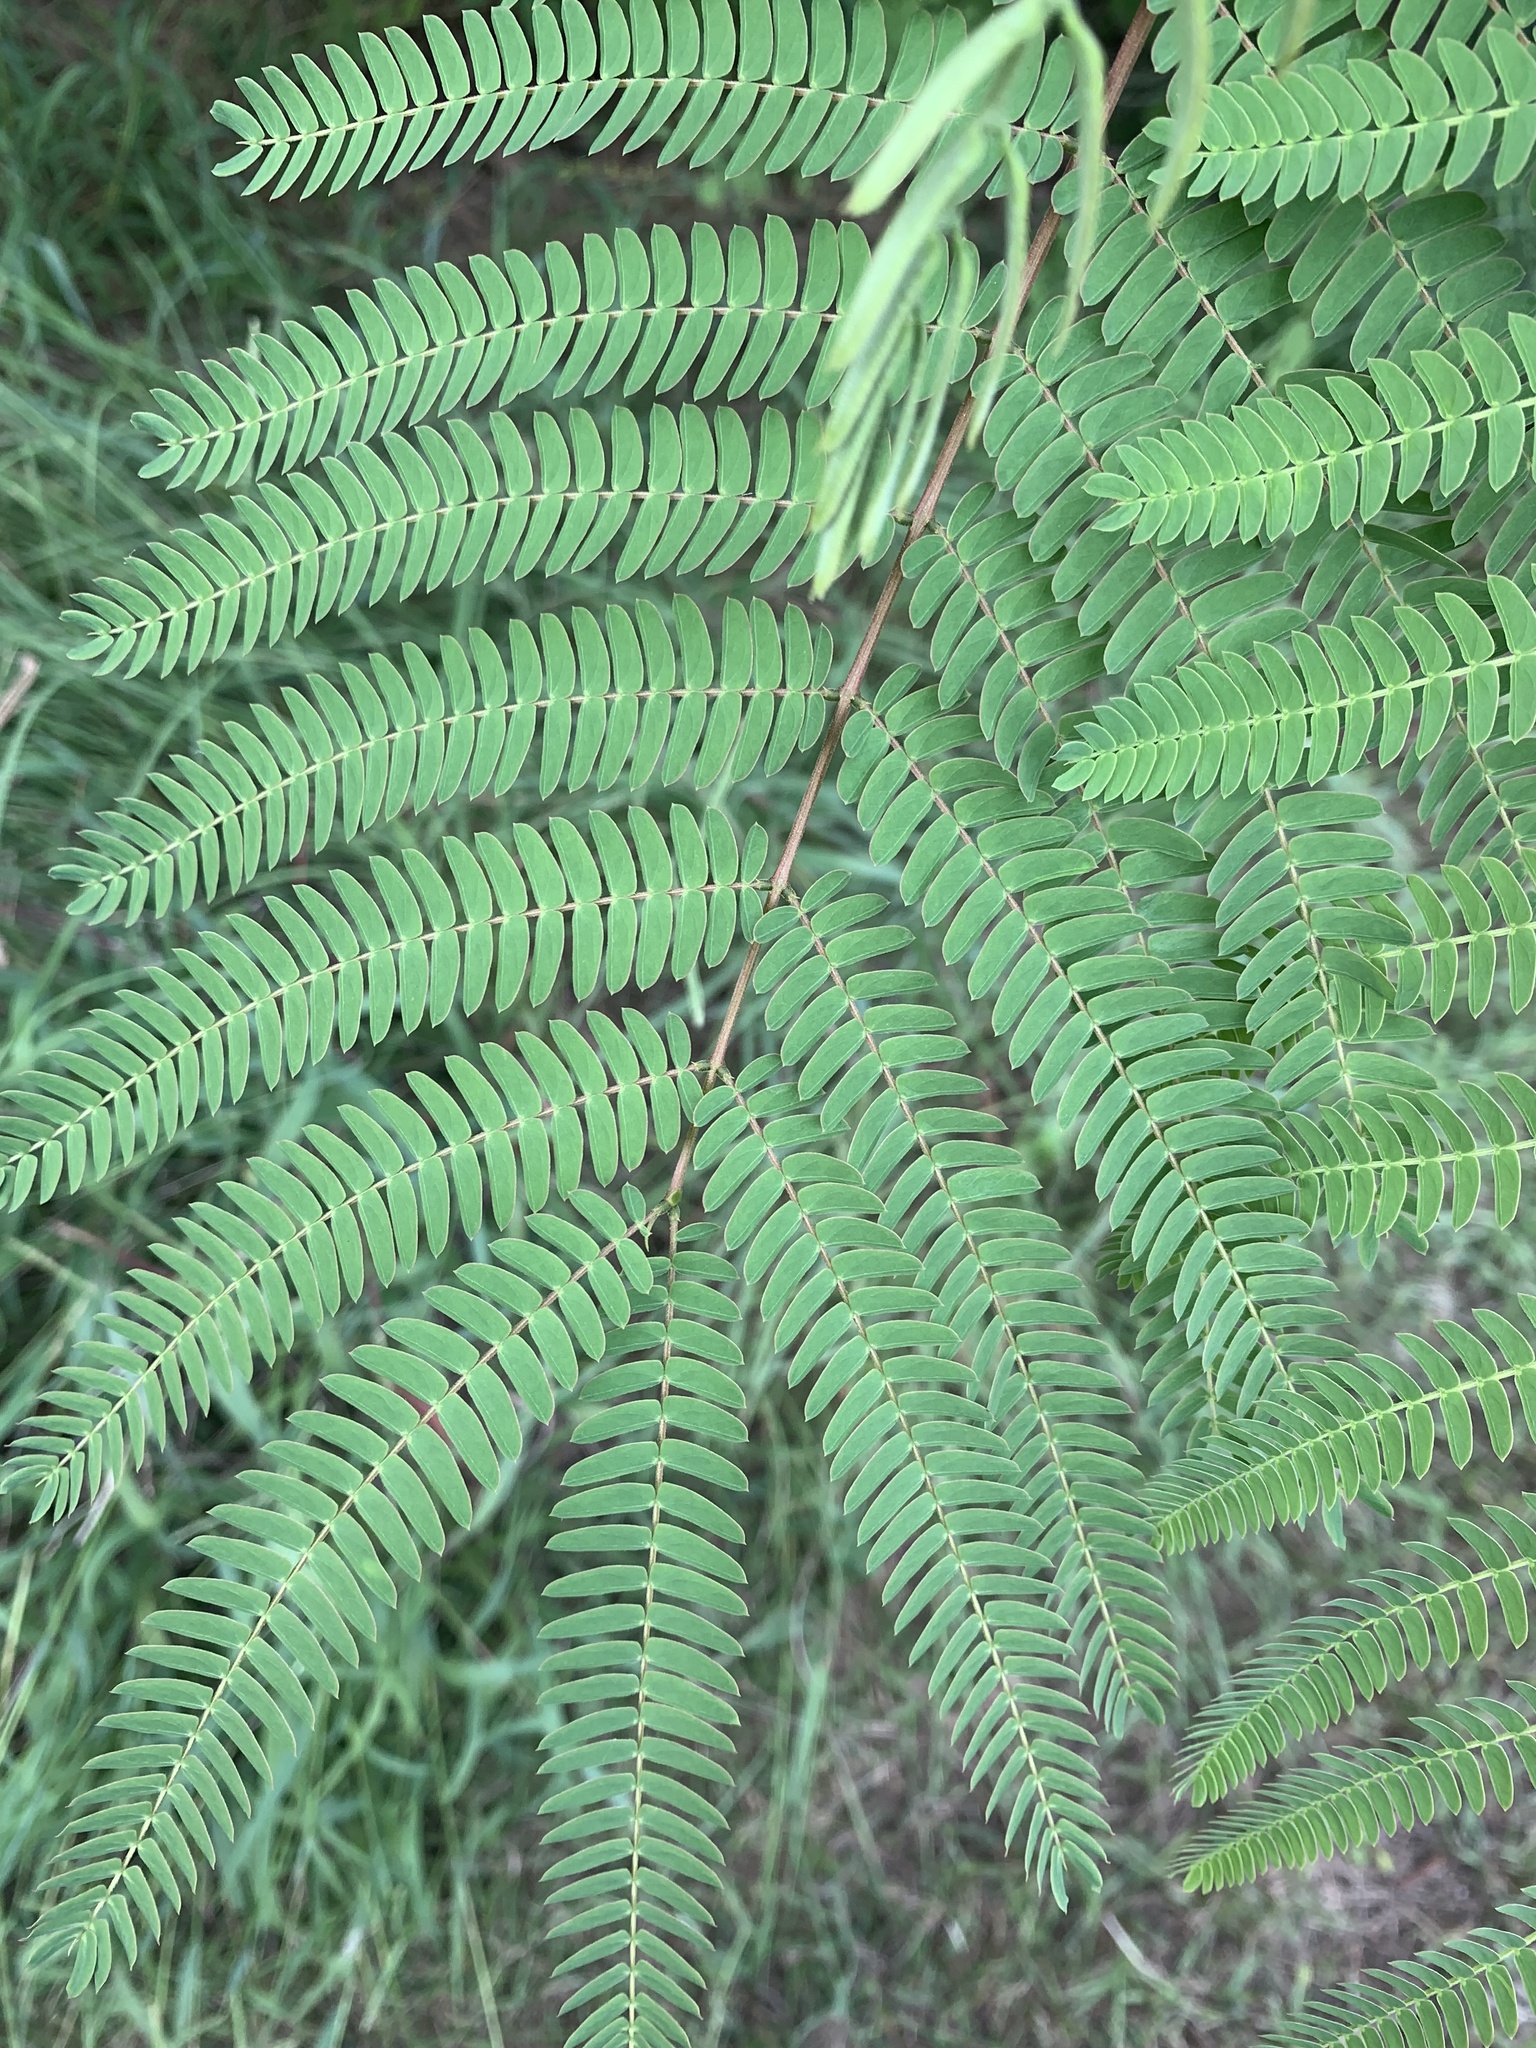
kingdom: Plantae
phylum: Tracheophyta
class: Magnoliopsida
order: Fabales
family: Fabaceae
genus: Albizia
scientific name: Albizia julibrissin
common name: Silktree
